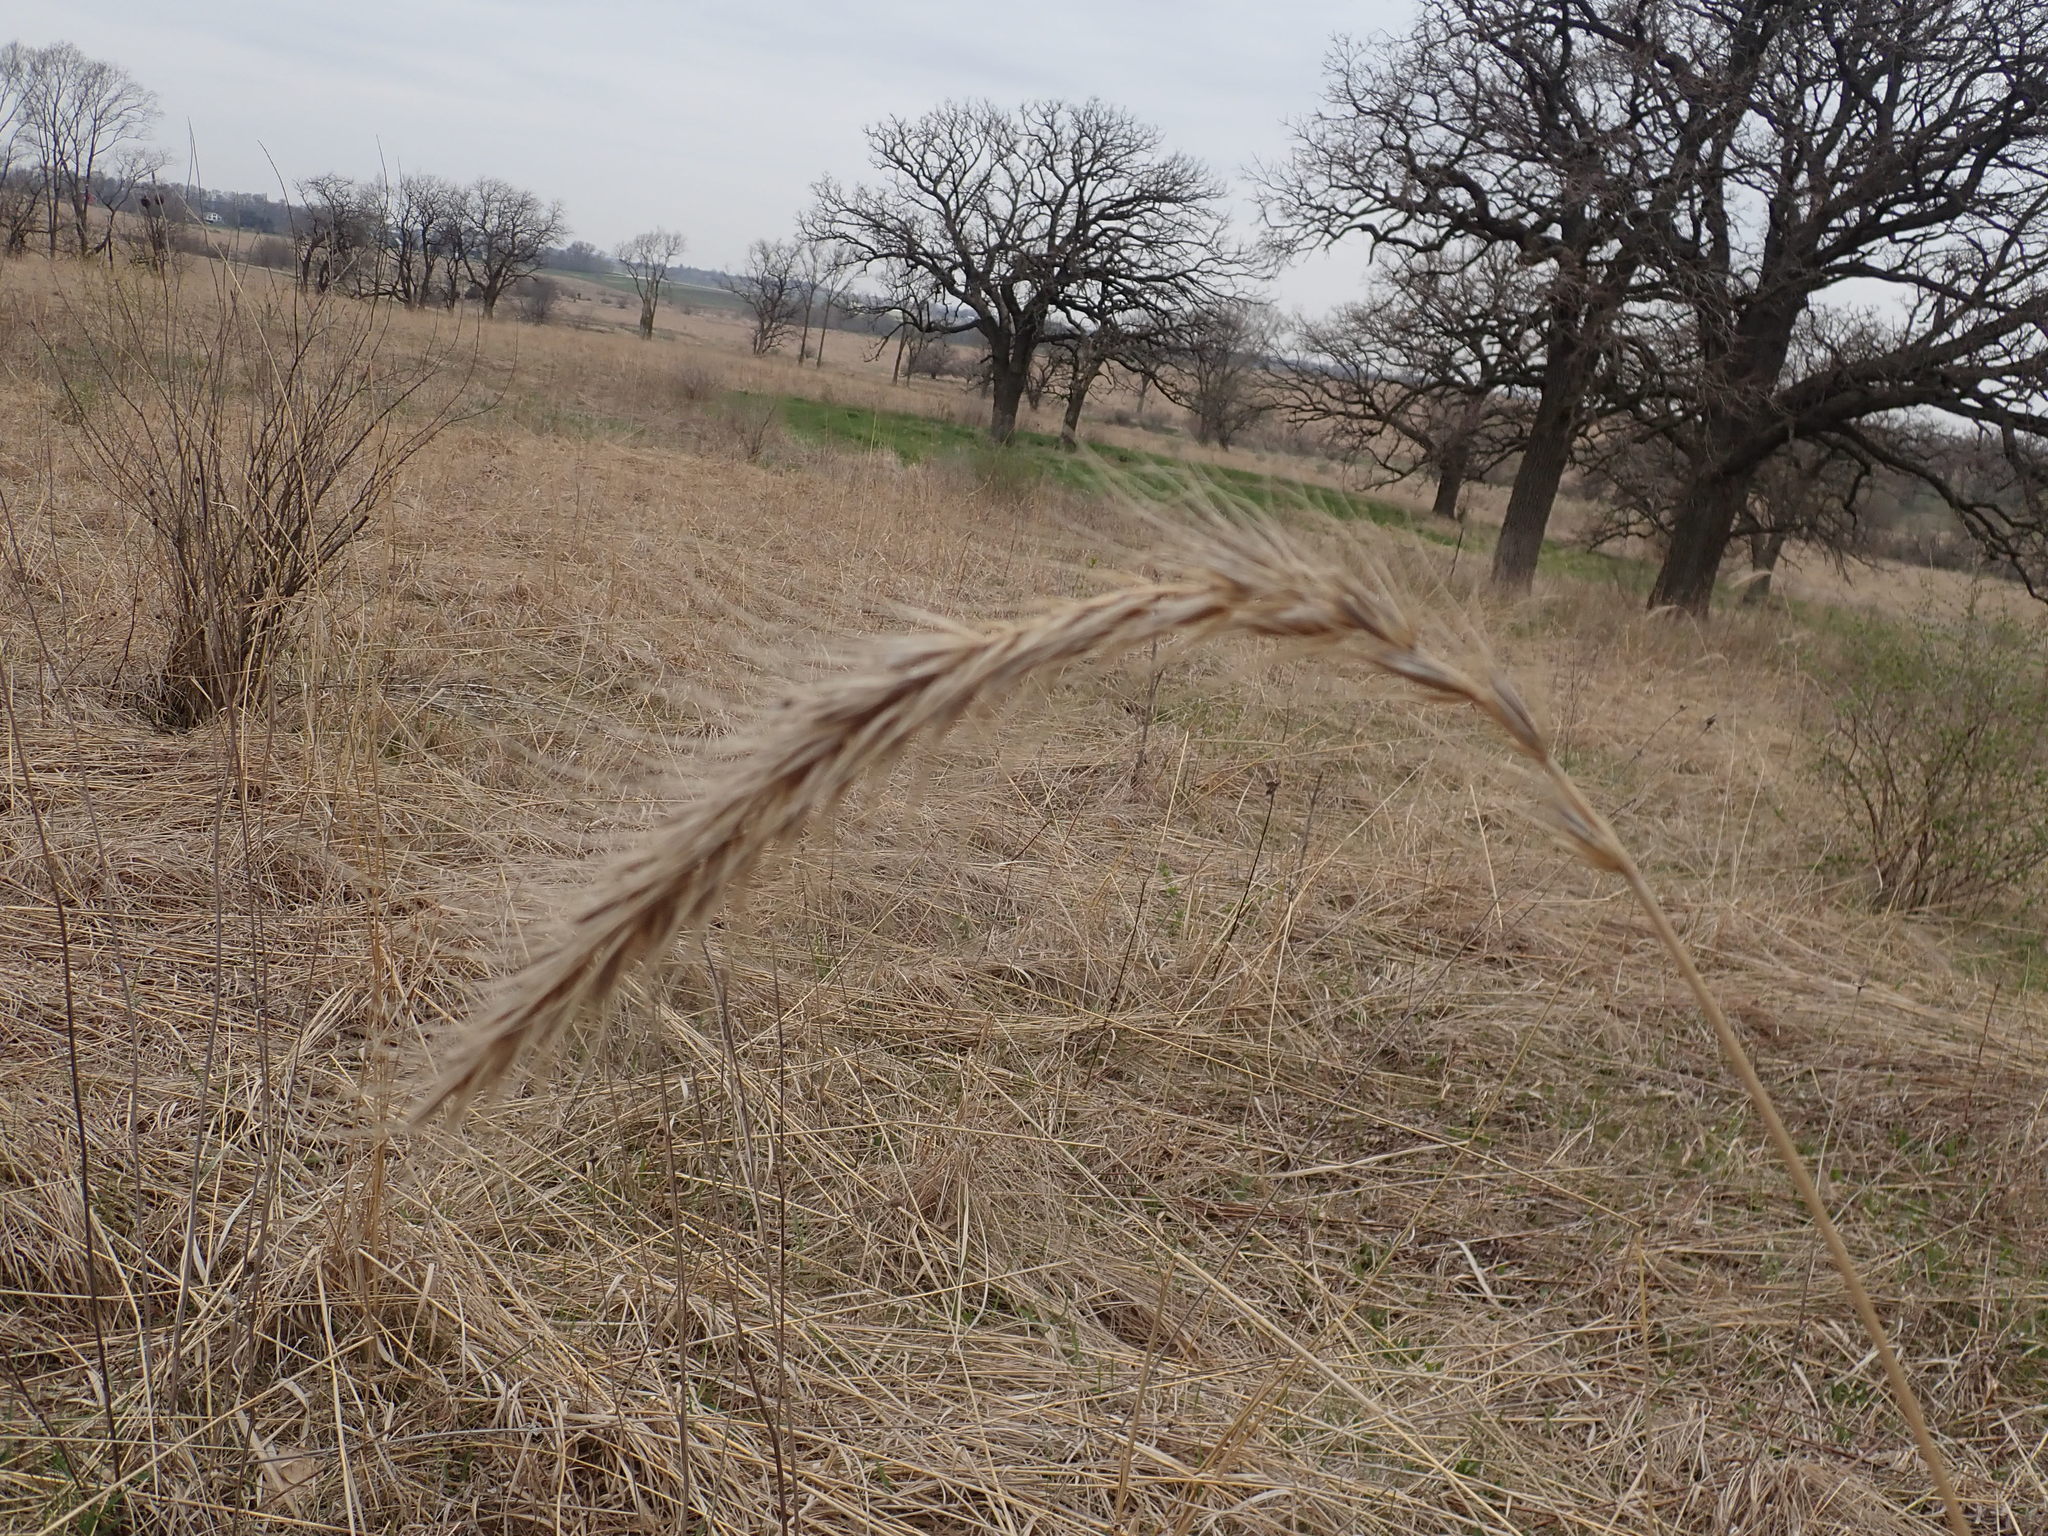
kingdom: Plantae
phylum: Tracheophyta
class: Liliopsida
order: Poales
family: Poaceae
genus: Elymus
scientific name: Elymus canadensis
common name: Canada wild rye
